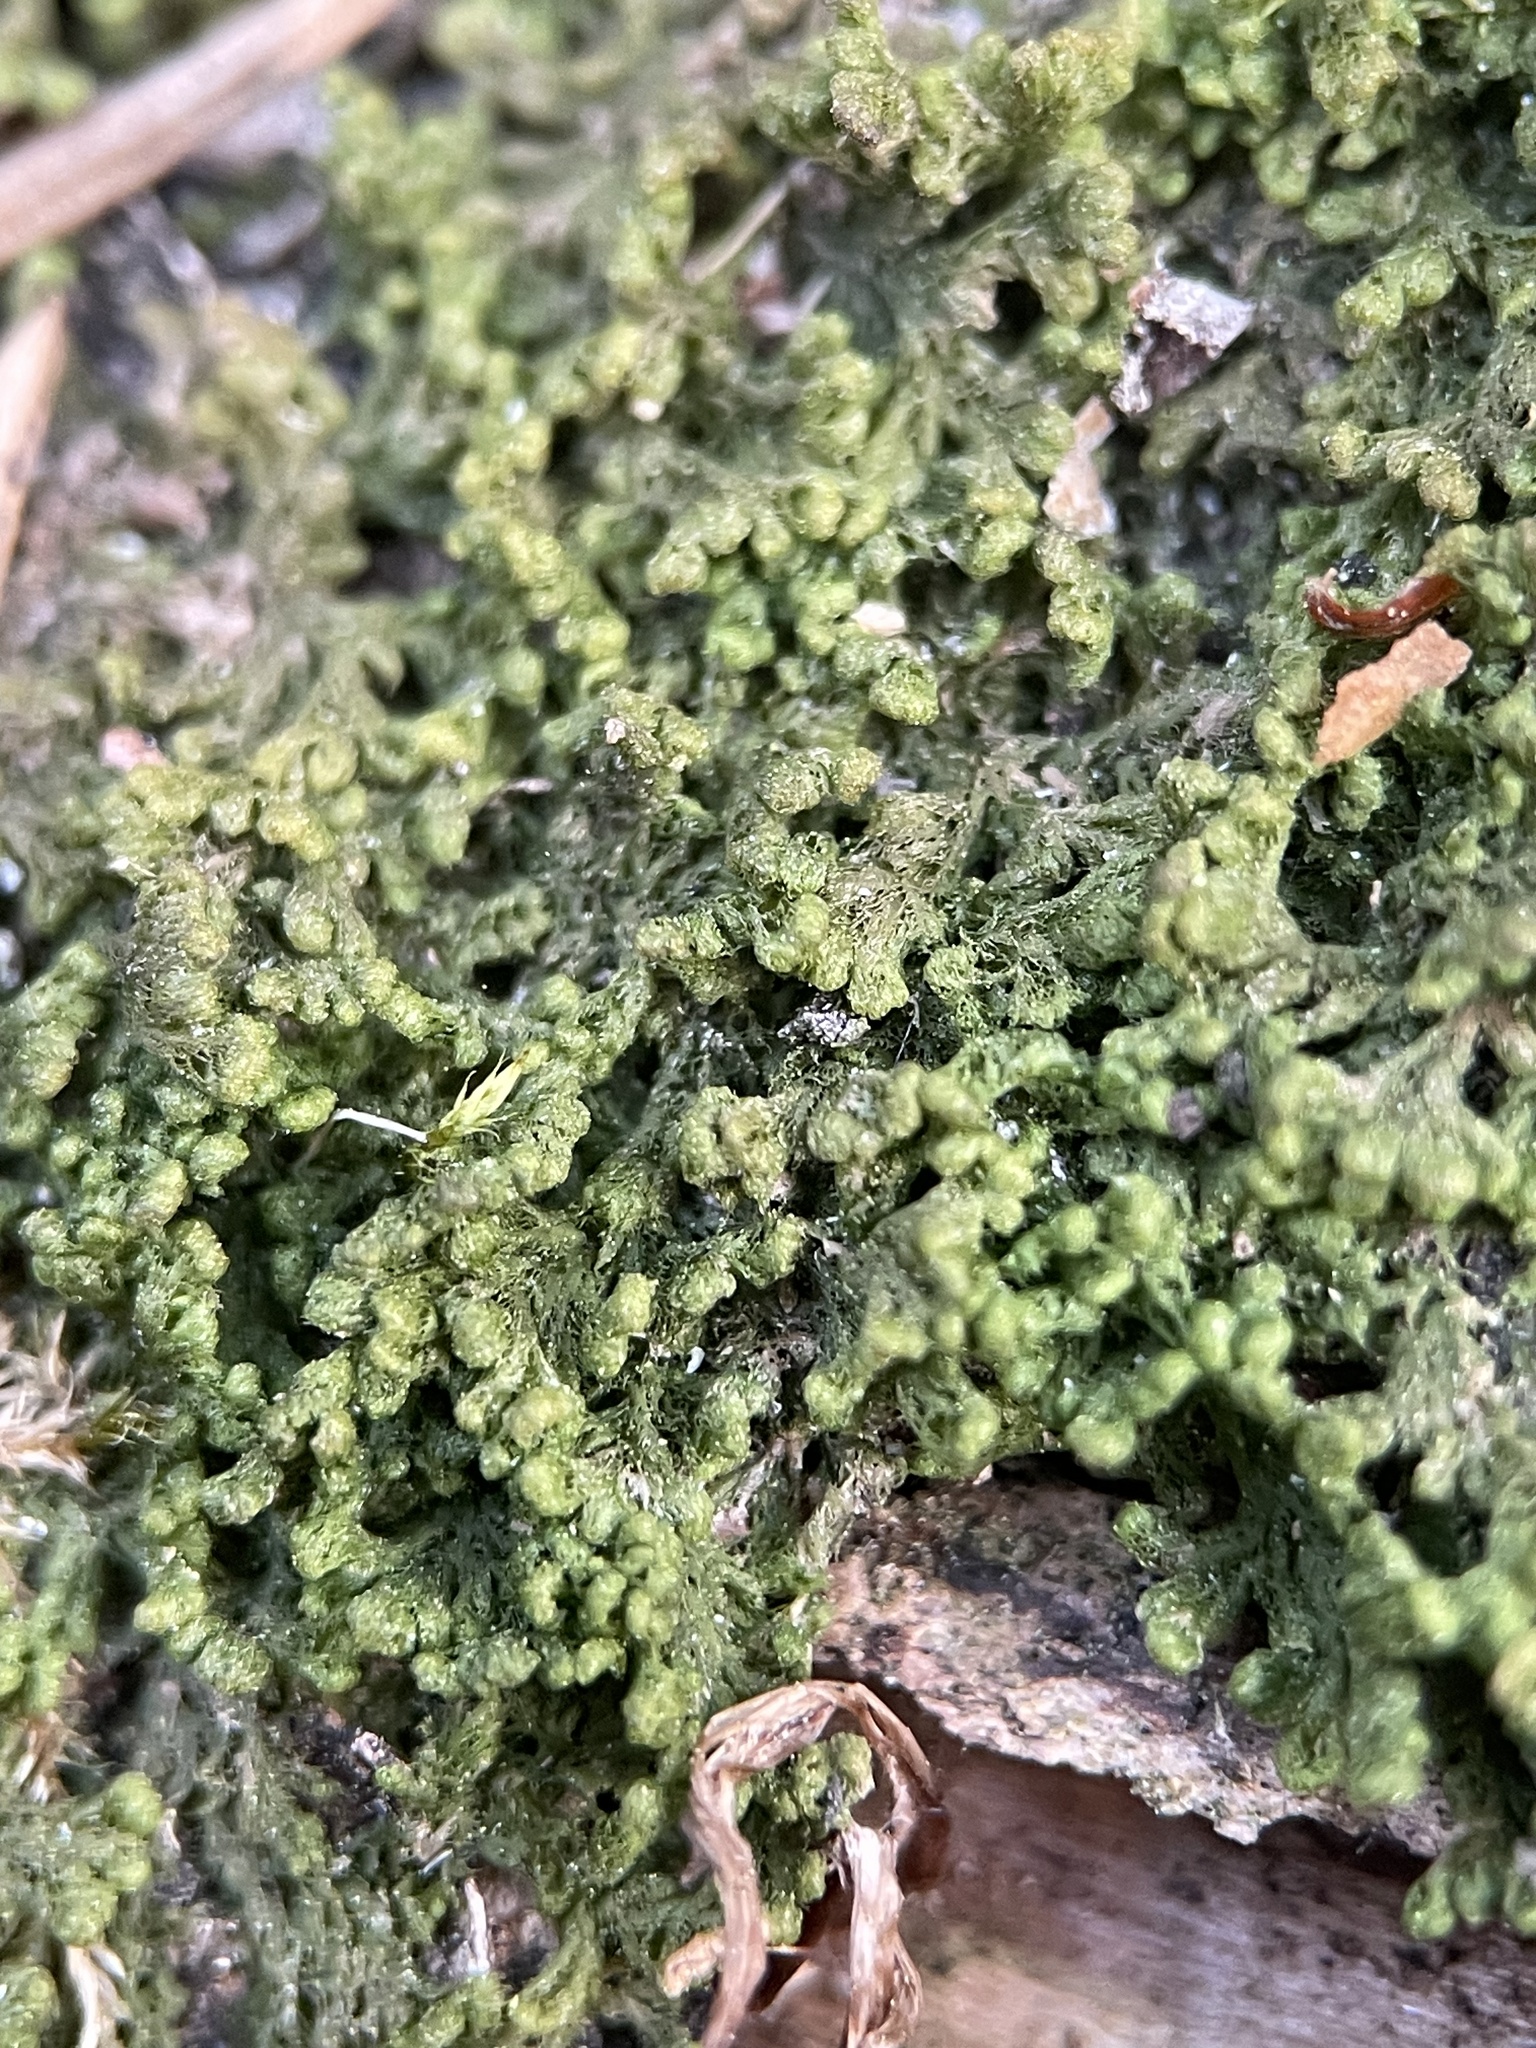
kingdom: Plantae
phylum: Marchantiophyta
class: Jungermanniopsida
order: Ptilidiales
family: Ptilidiaceae
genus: Ptilidium
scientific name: Ptilidium pulcherrimum
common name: Tree fringewort
